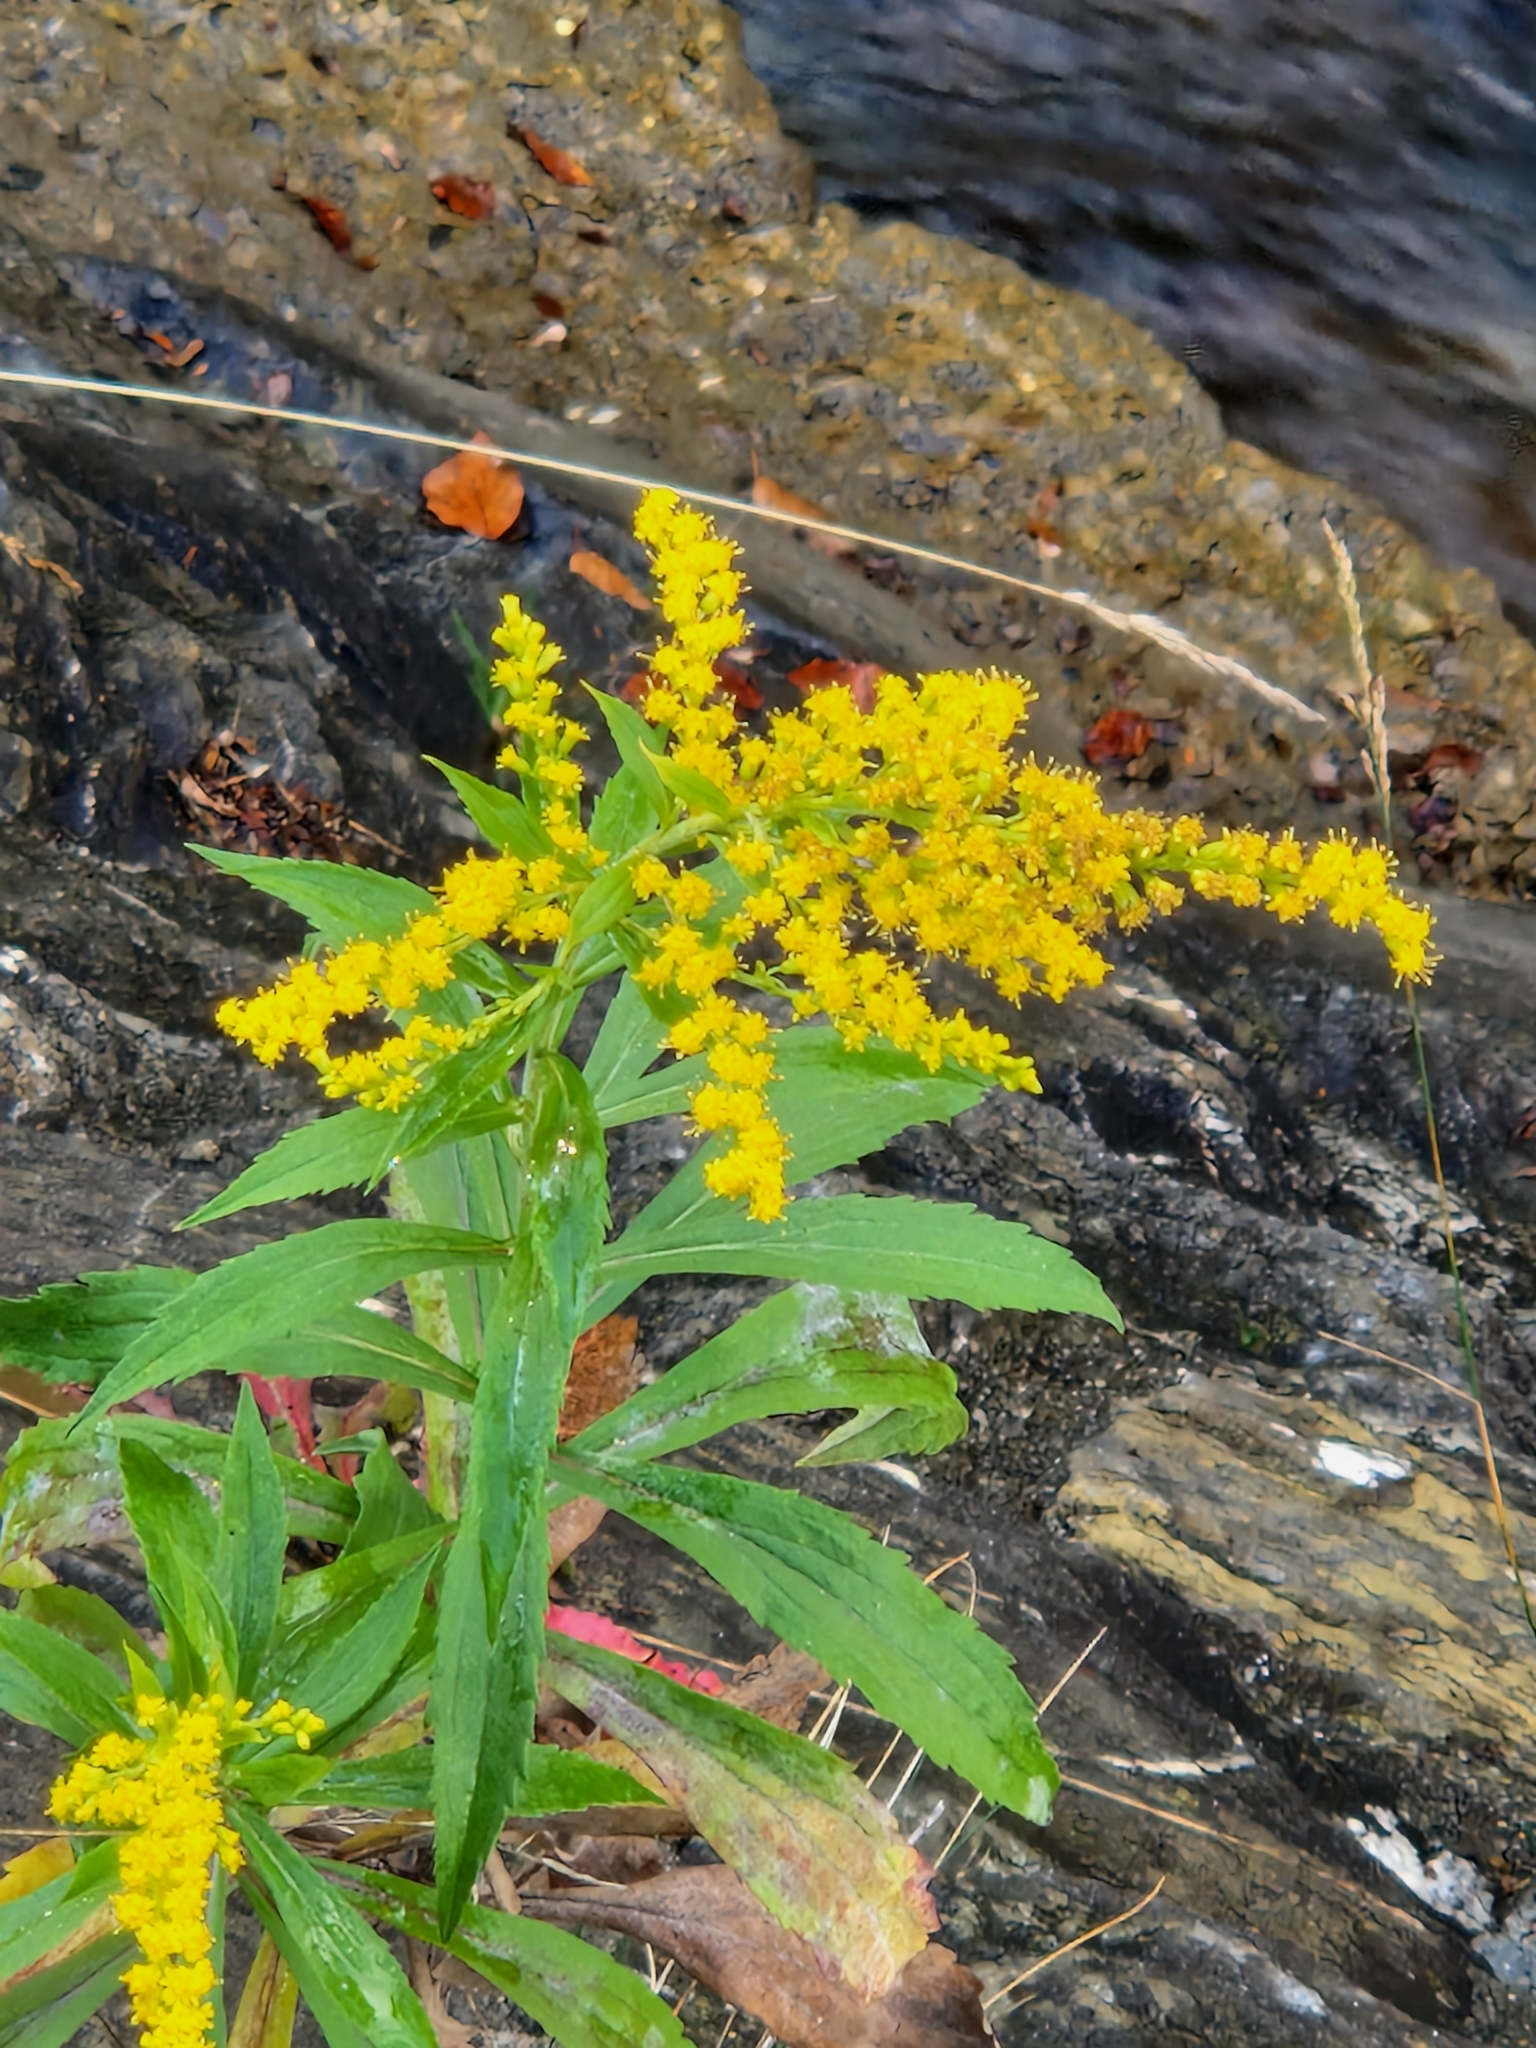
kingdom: Plantae
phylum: Tracheophyta
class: Magnoliopsida
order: Asterales
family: Asteraceae
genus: Solidago
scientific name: Solidago canadensis
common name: Canada goldenrod
